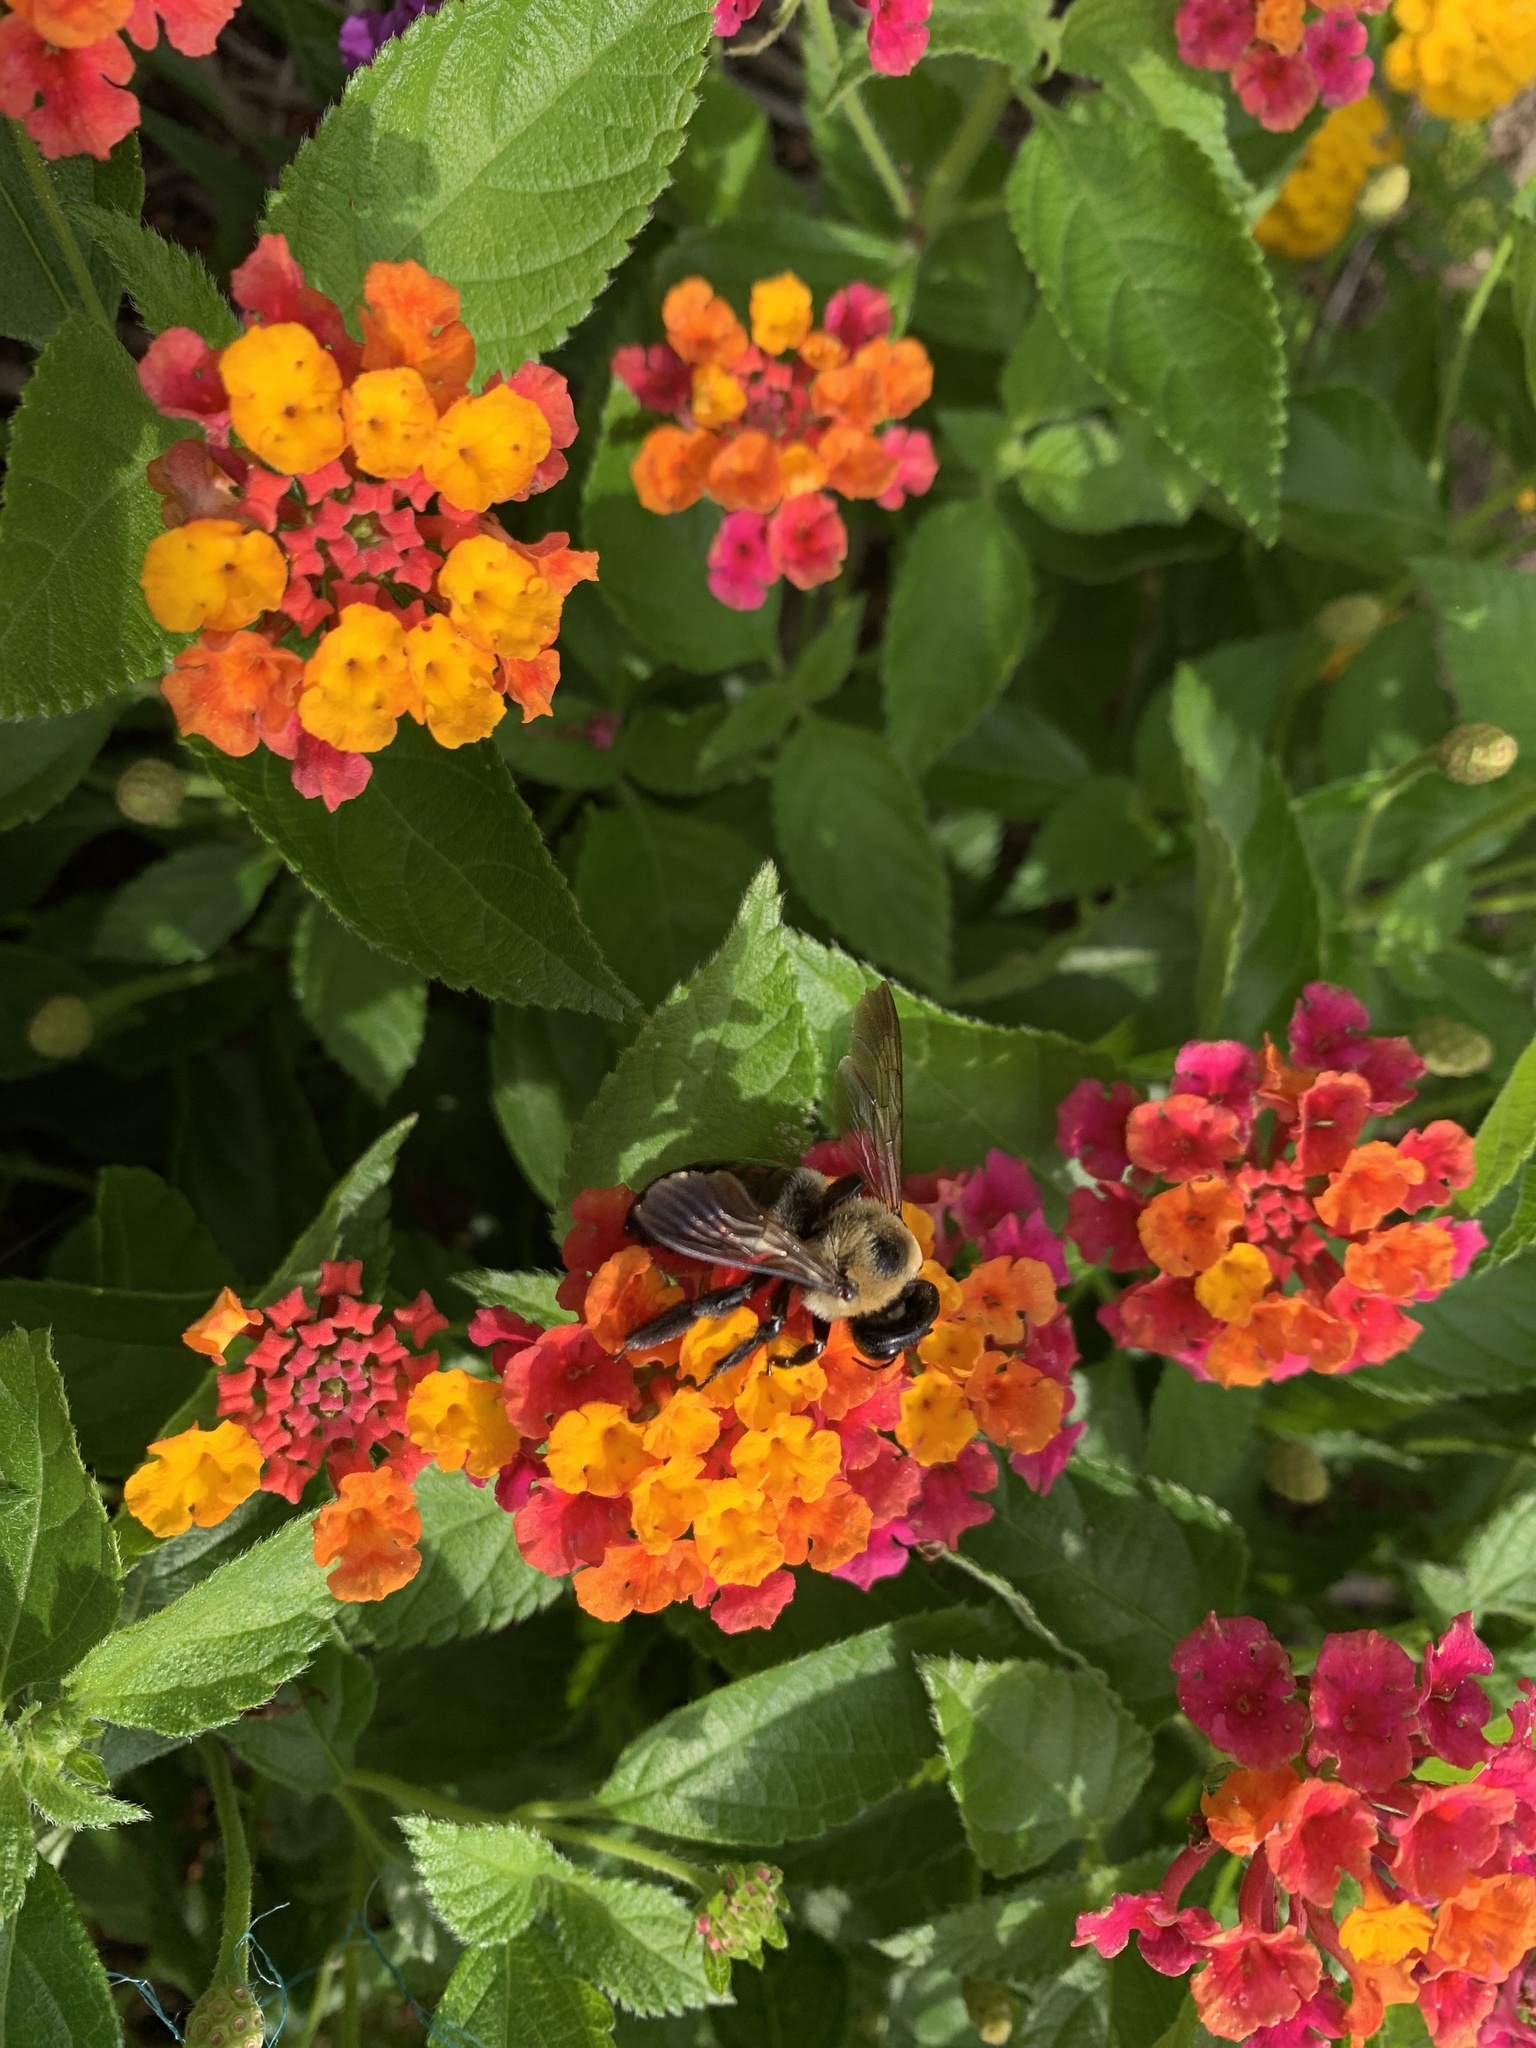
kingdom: Animalia
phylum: Arthropoda
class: Insecta
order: Hymenoptera
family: Apidae
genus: Xylocopa
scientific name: Xylocopa virginica
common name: Carpenter bee
